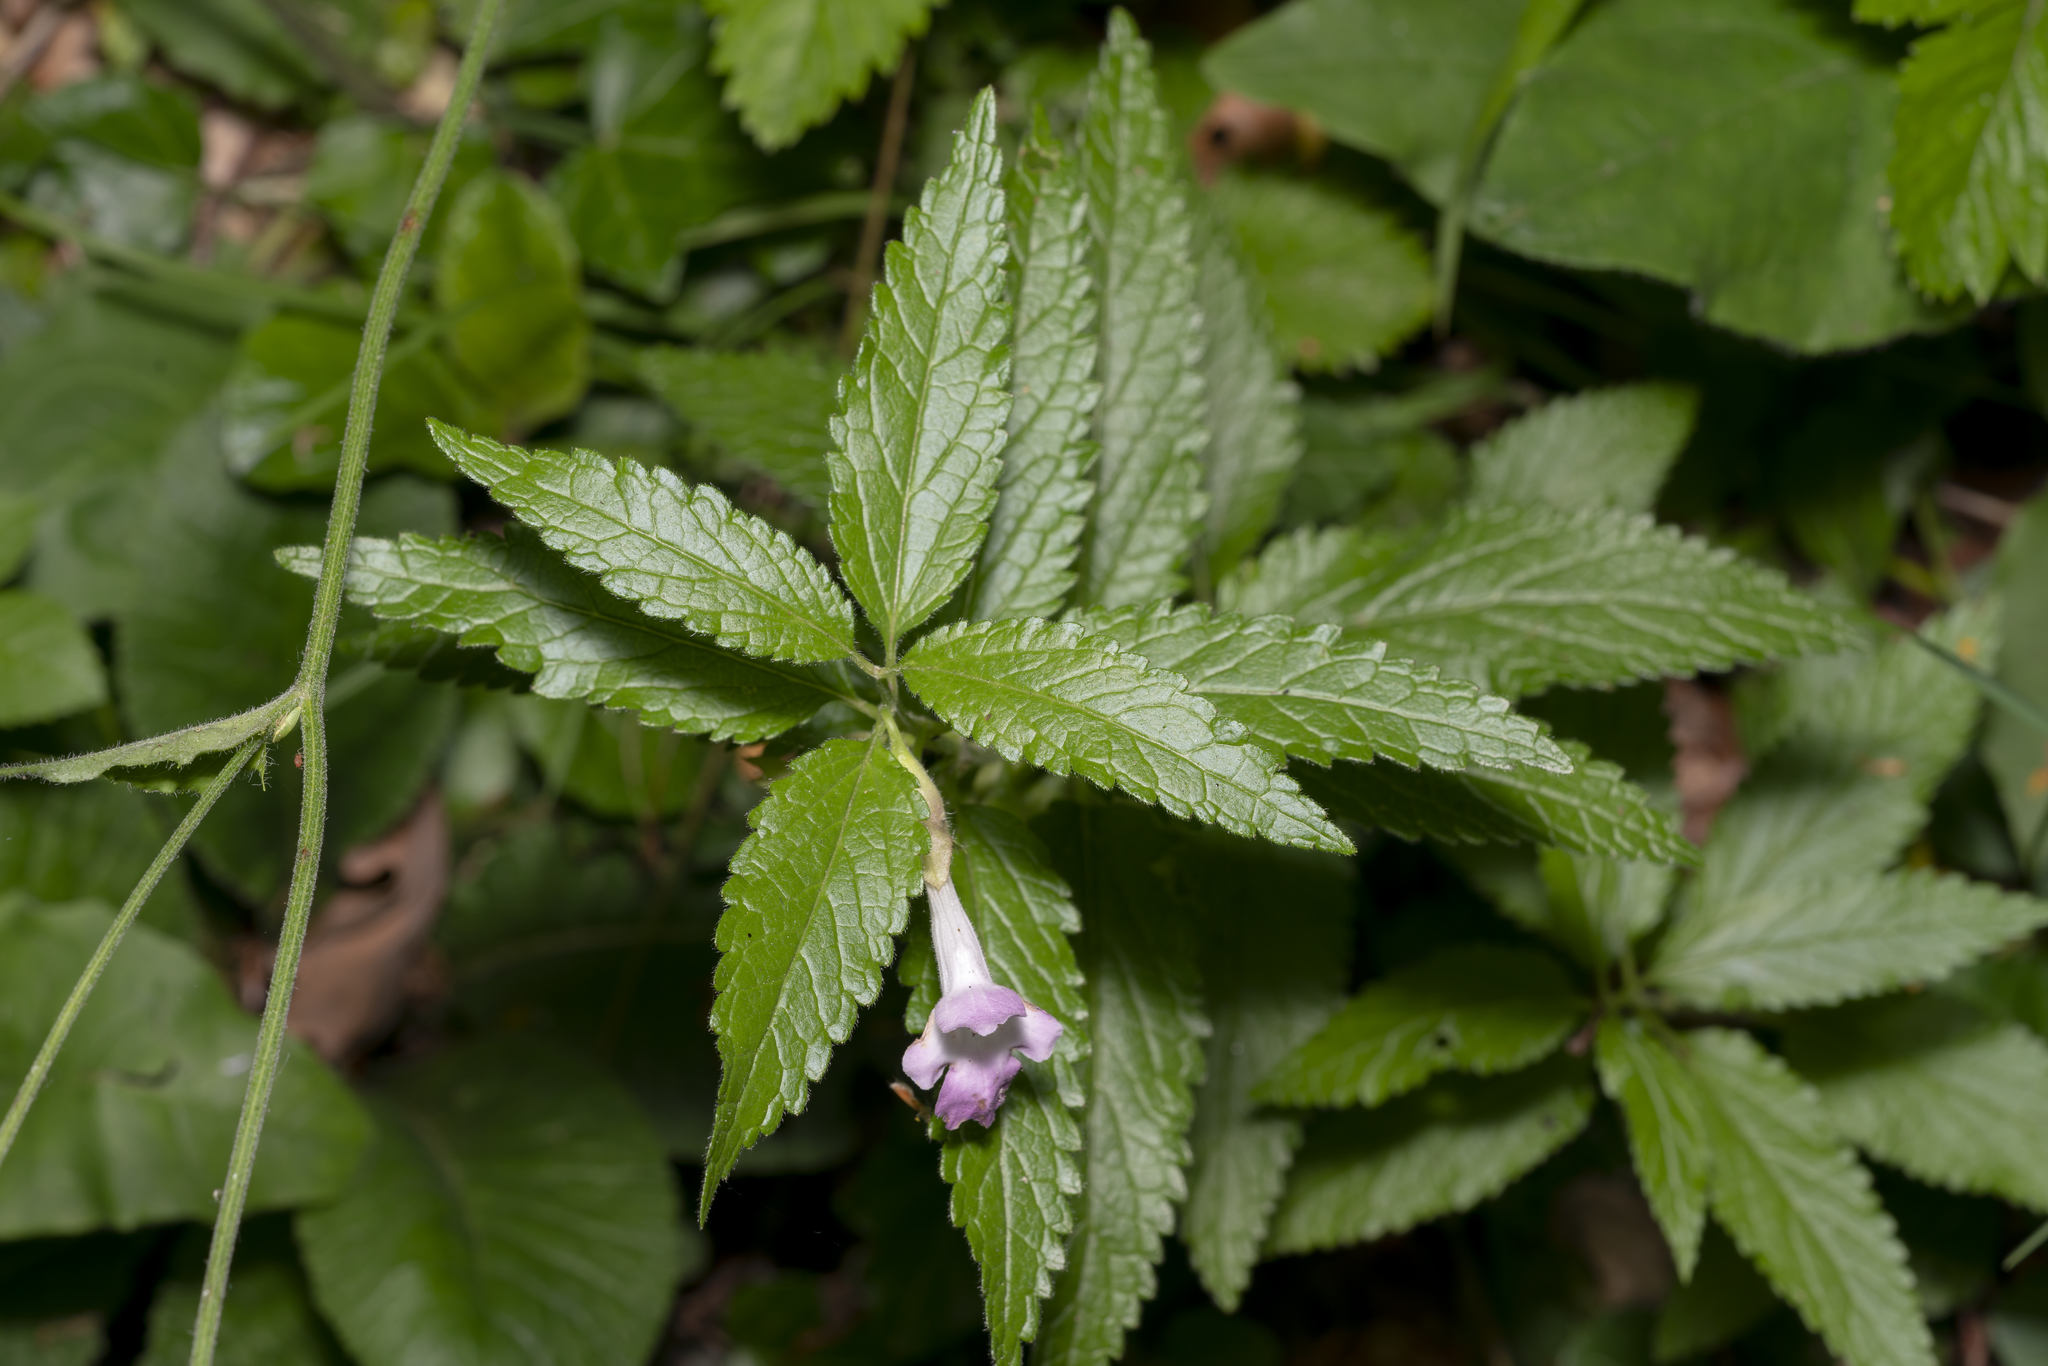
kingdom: Plantae
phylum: Tracheophyta
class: Magnoliopsida
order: Lamiales
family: Lamiaceae
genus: Melittis
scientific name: Melittis melissophyllum
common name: Bastard balm
